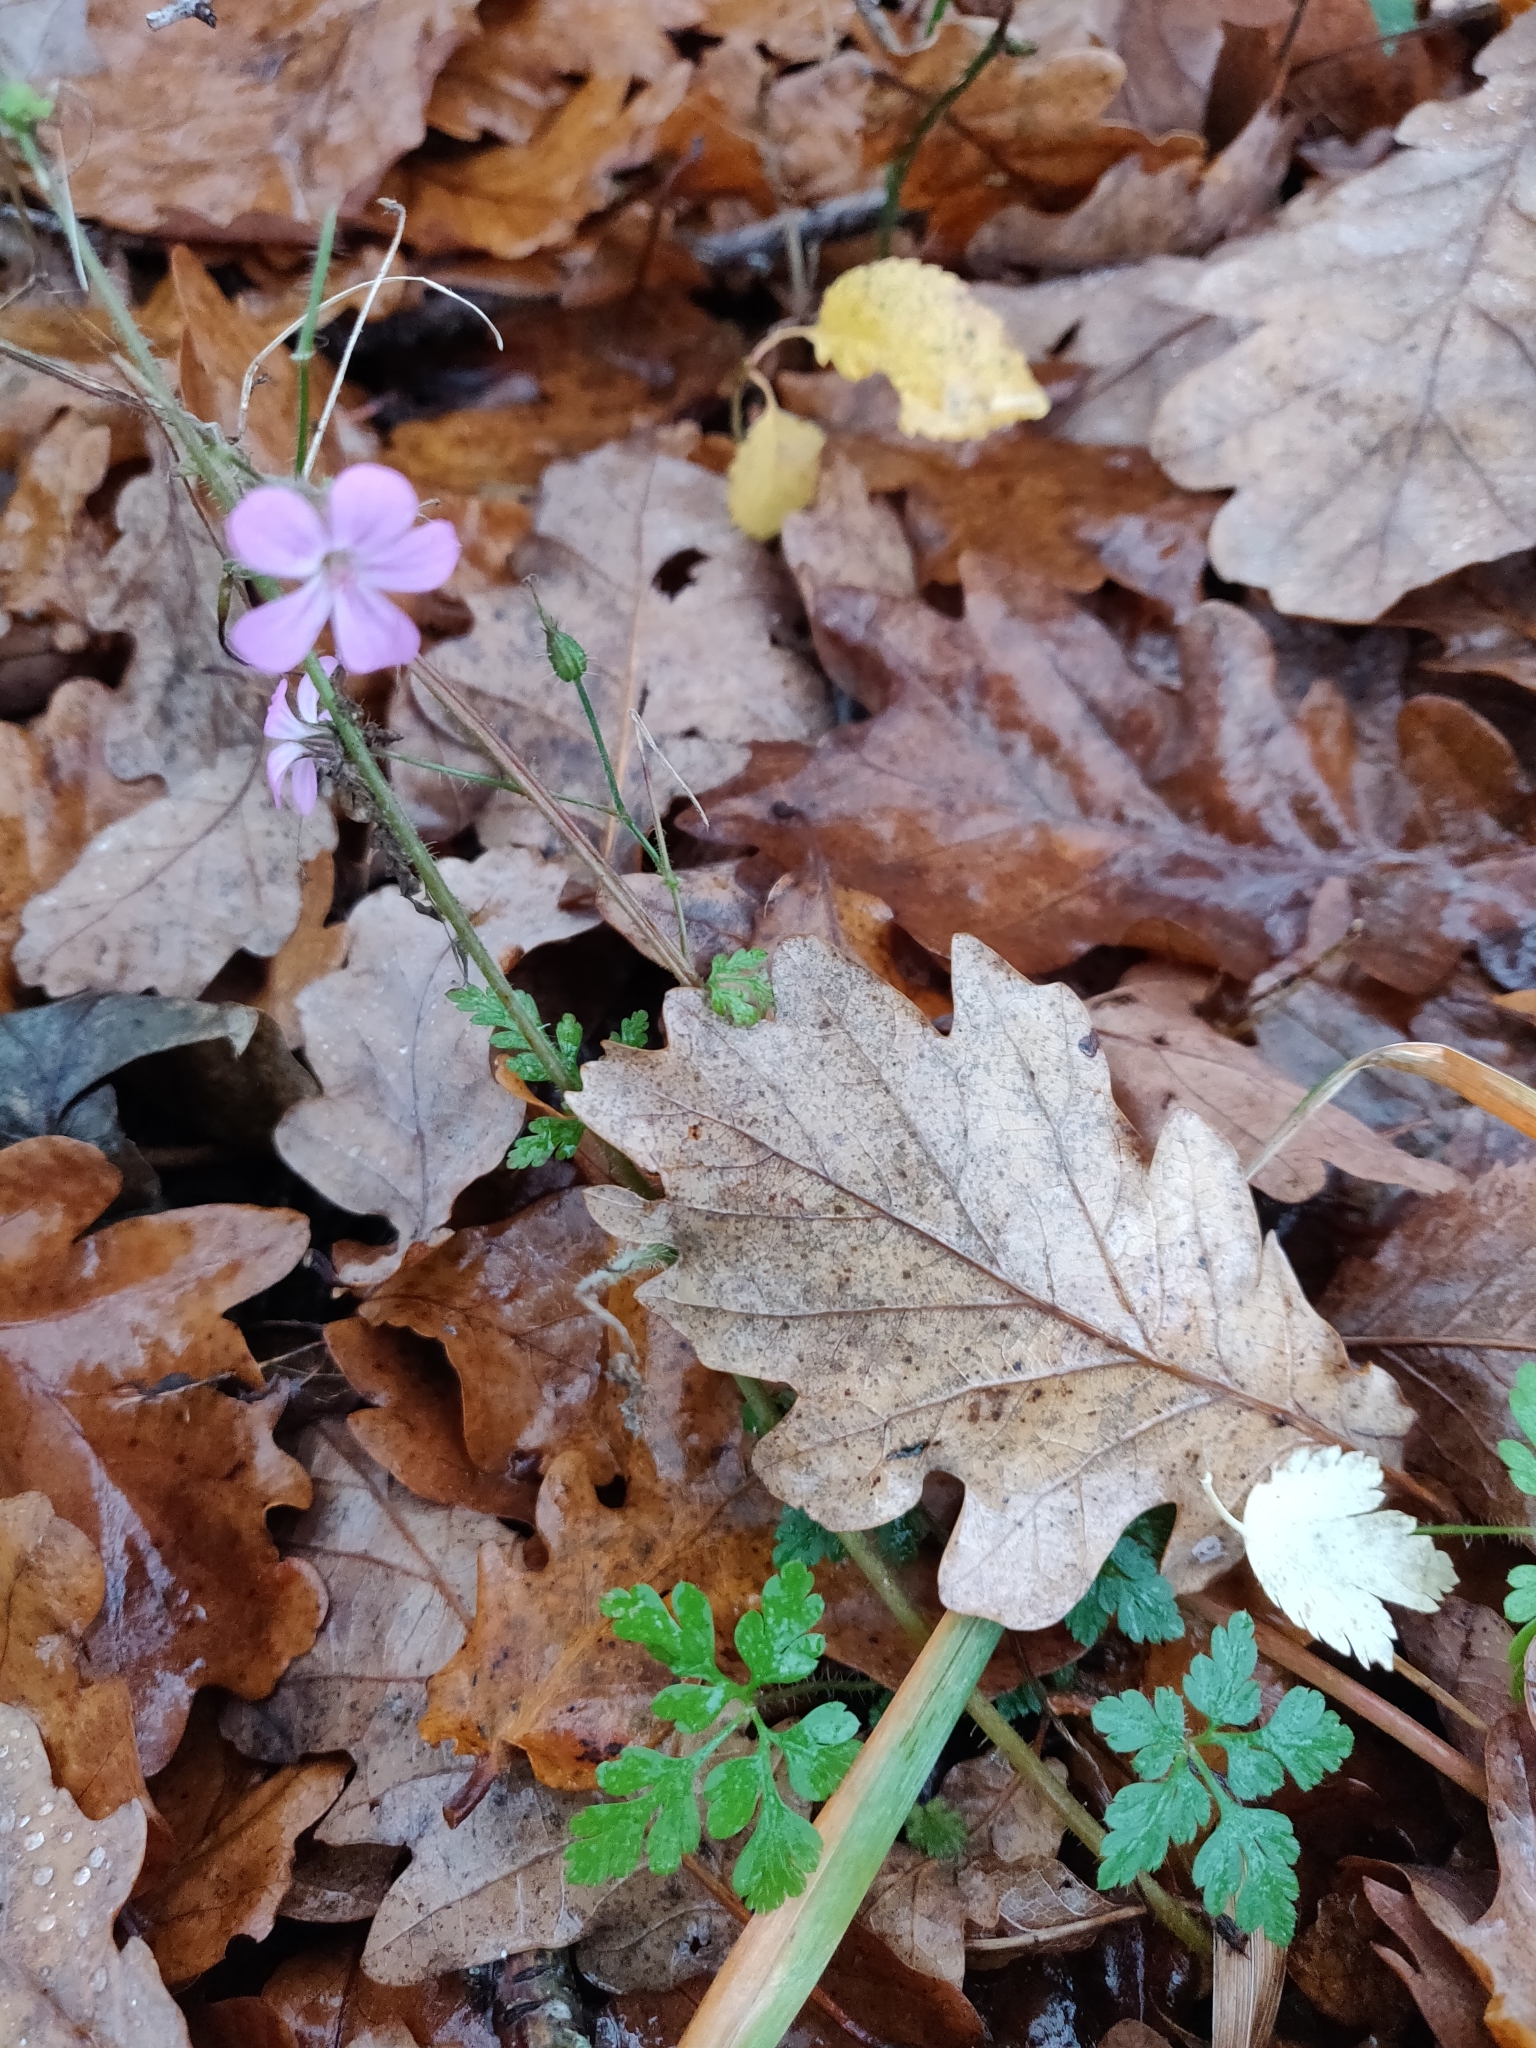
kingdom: Plantae
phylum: Tracheophyta
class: Magnoliopsida
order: Geraniales
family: Geraniaceae
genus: Geranium
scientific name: Geranium robertianum
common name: Herb-robert
